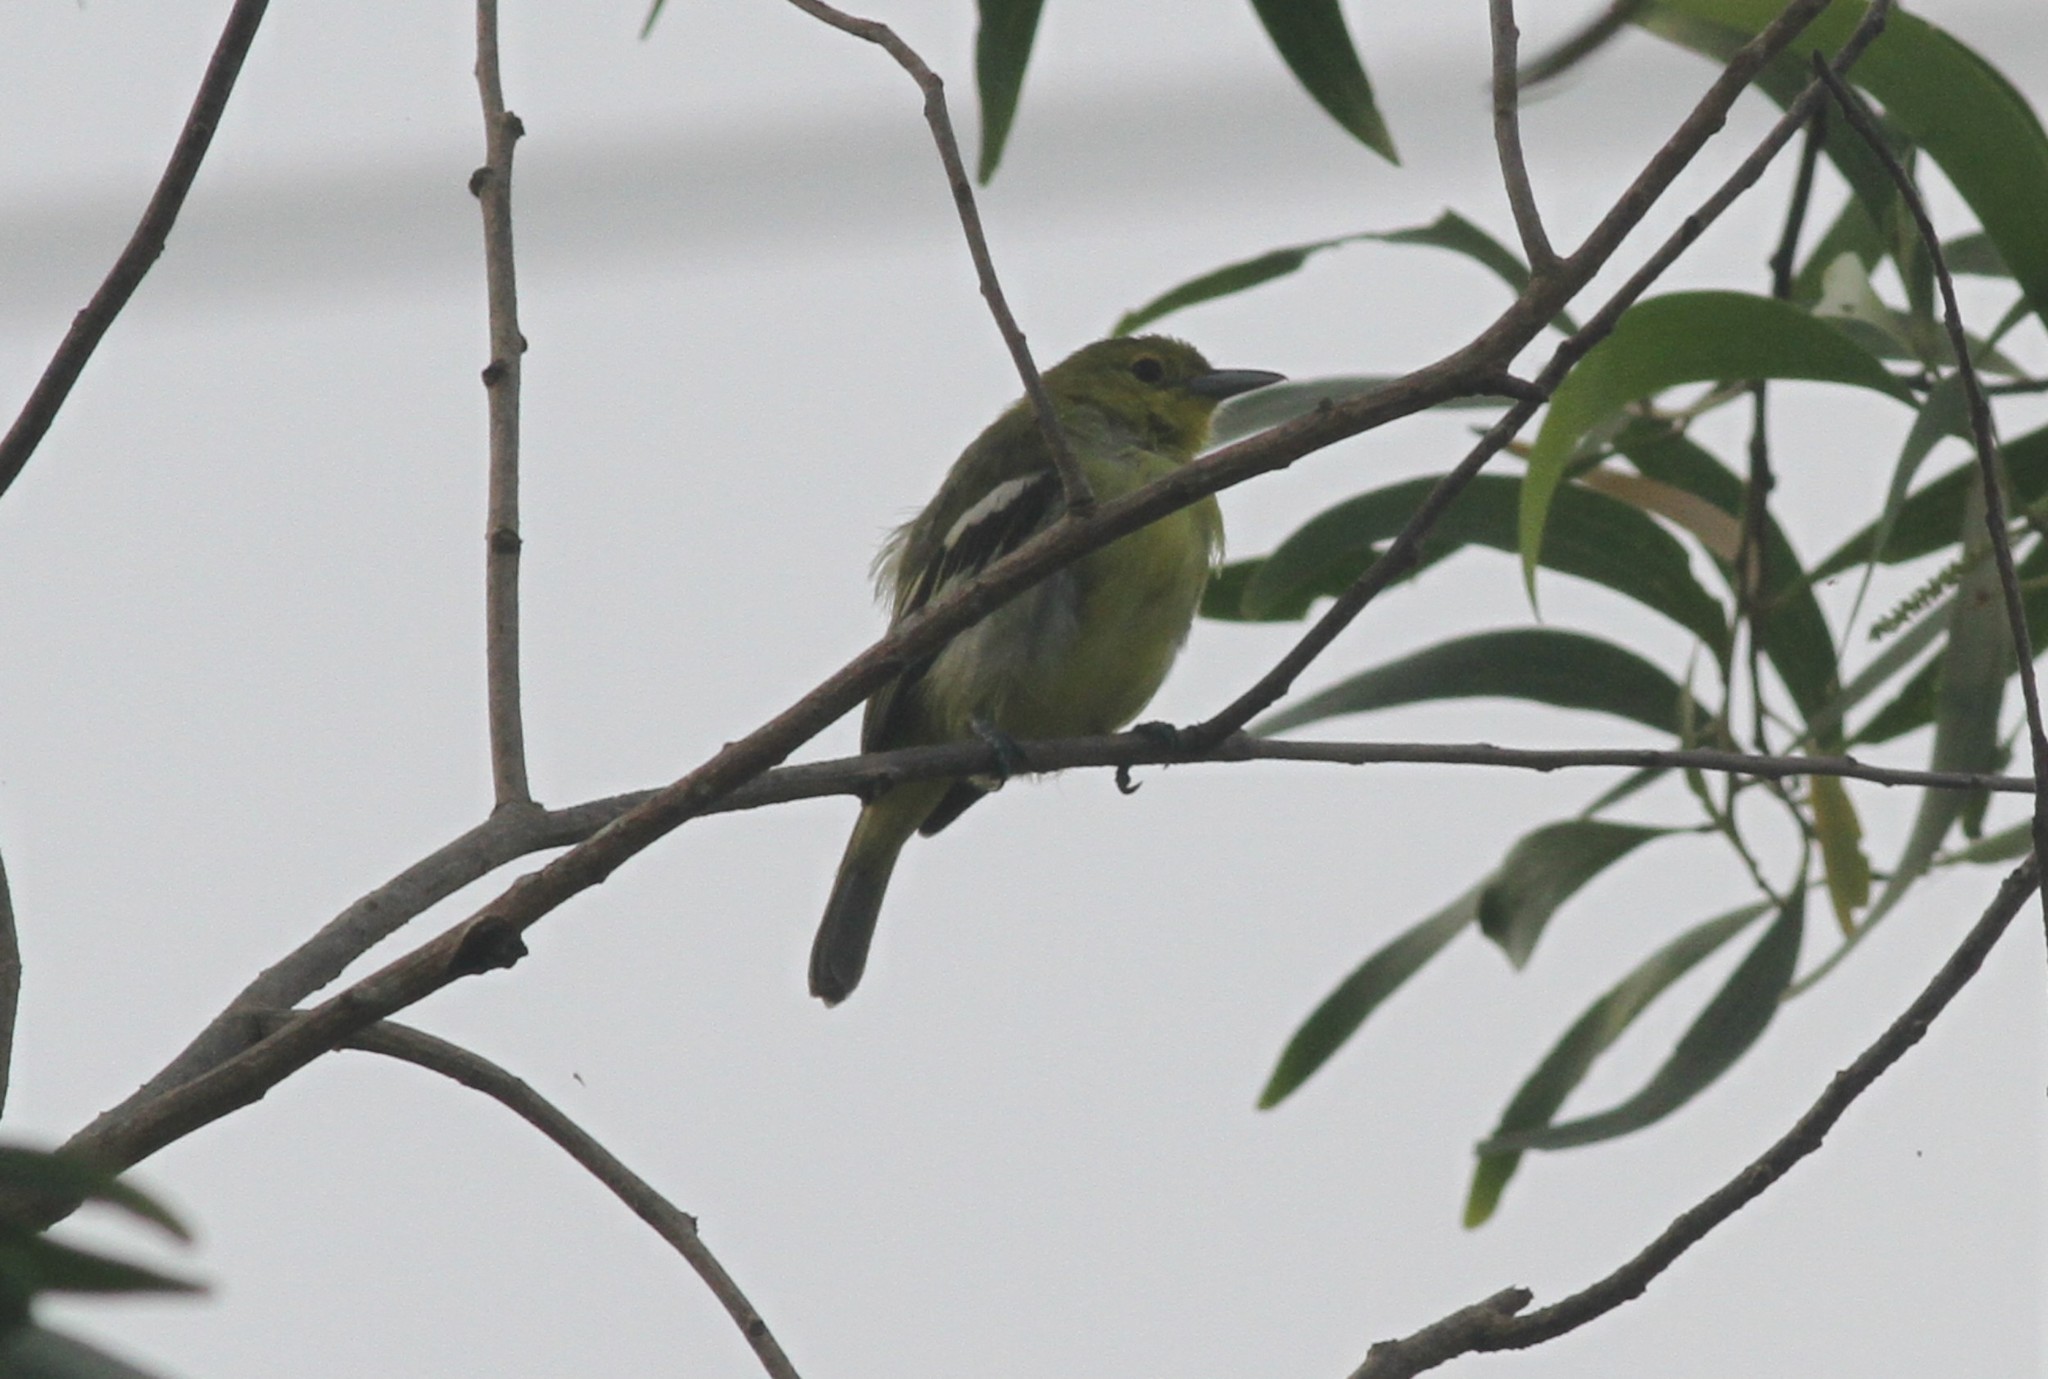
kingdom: Animalia
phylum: Chordata
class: Aves
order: Passeriformes
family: Aegithinidae
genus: Aegithina
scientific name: Aegithina tiphia
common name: Common iora
